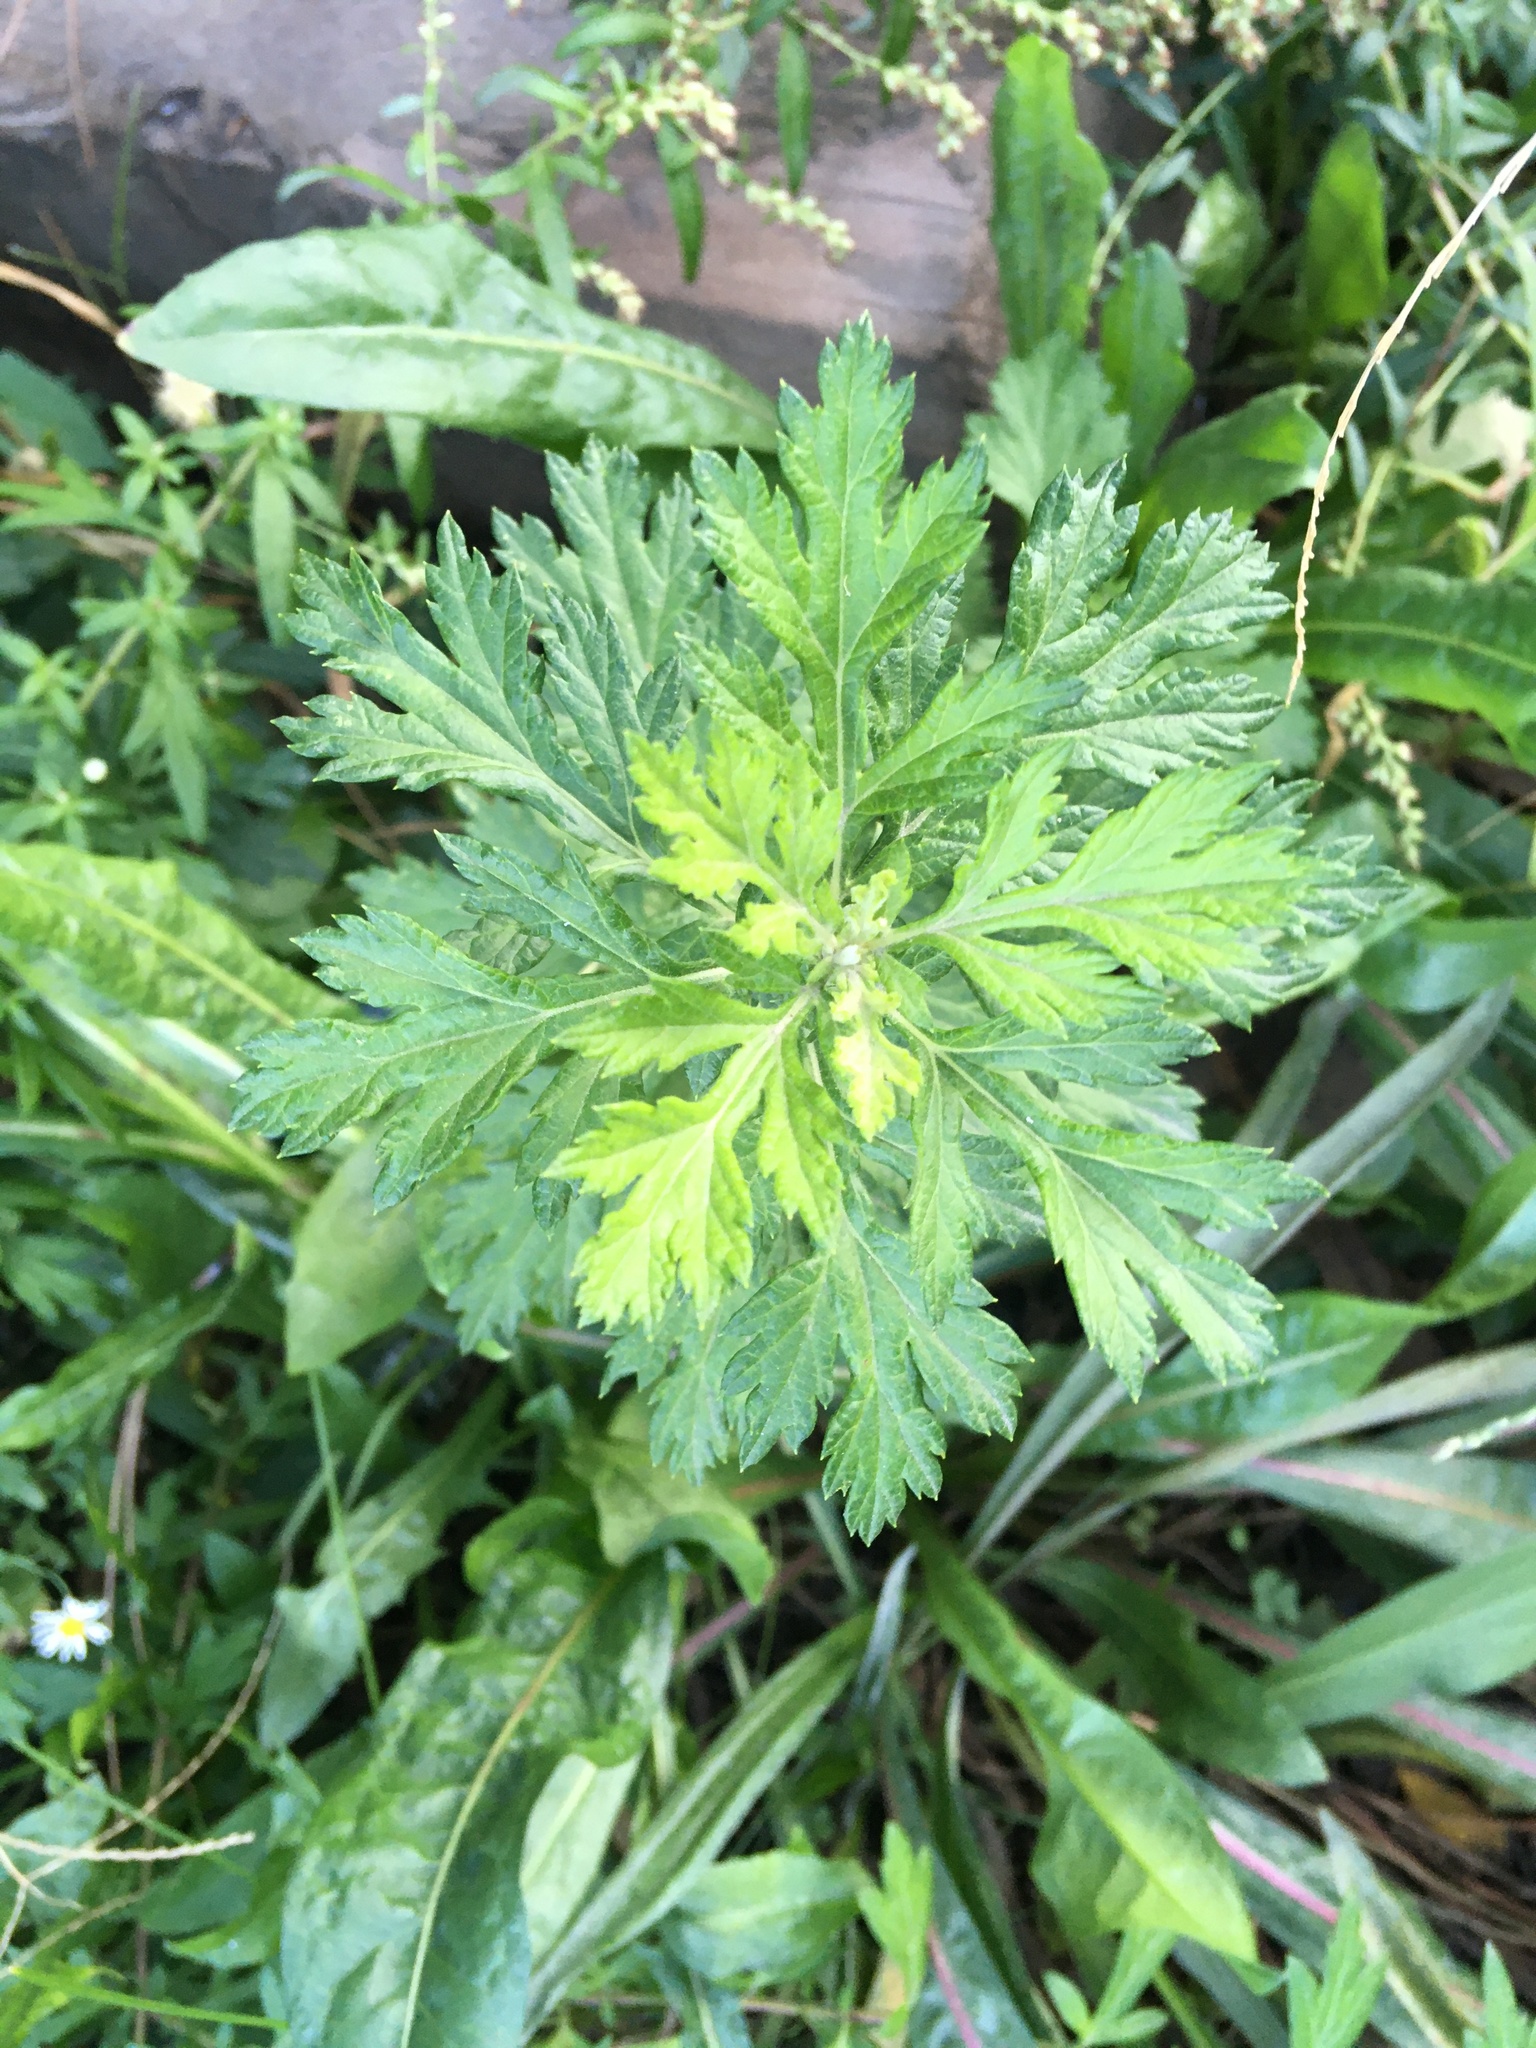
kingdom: Plantae
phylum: Tracheophyta
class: Magnoliopsida
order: Asterales
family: Asteraceae
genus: Artemisia
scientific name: Artemisia vulgaris
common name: Mugwort
